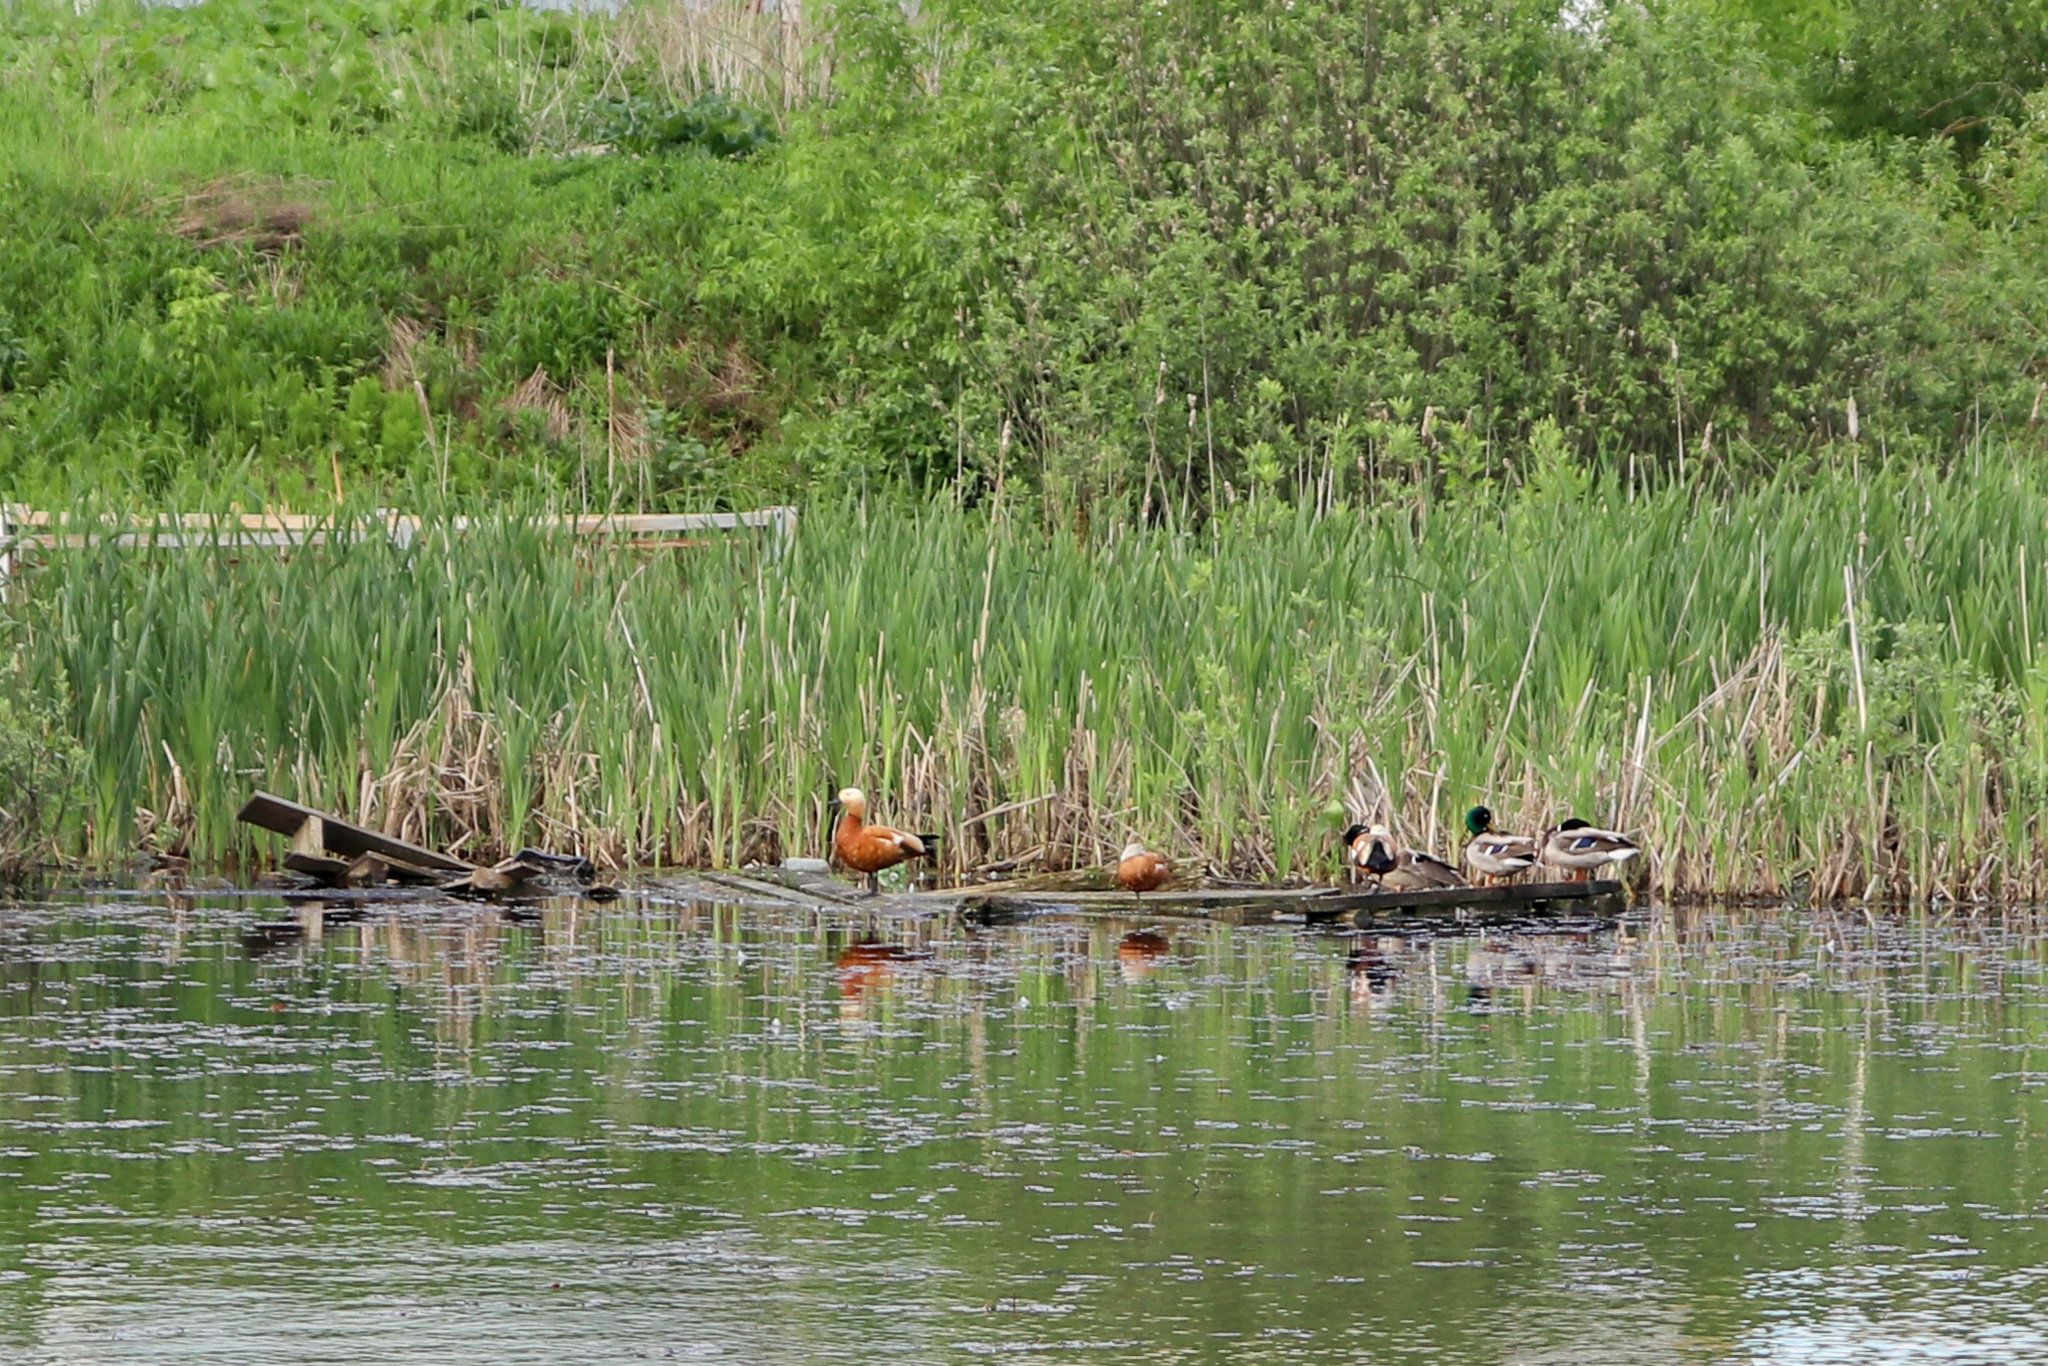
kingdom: Animalia
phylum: Chordata
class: Aves
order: Anseriformes
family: Anatidae
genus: Tadorna
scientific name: Tadorna ferruginea
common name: Ruddy shelduck
